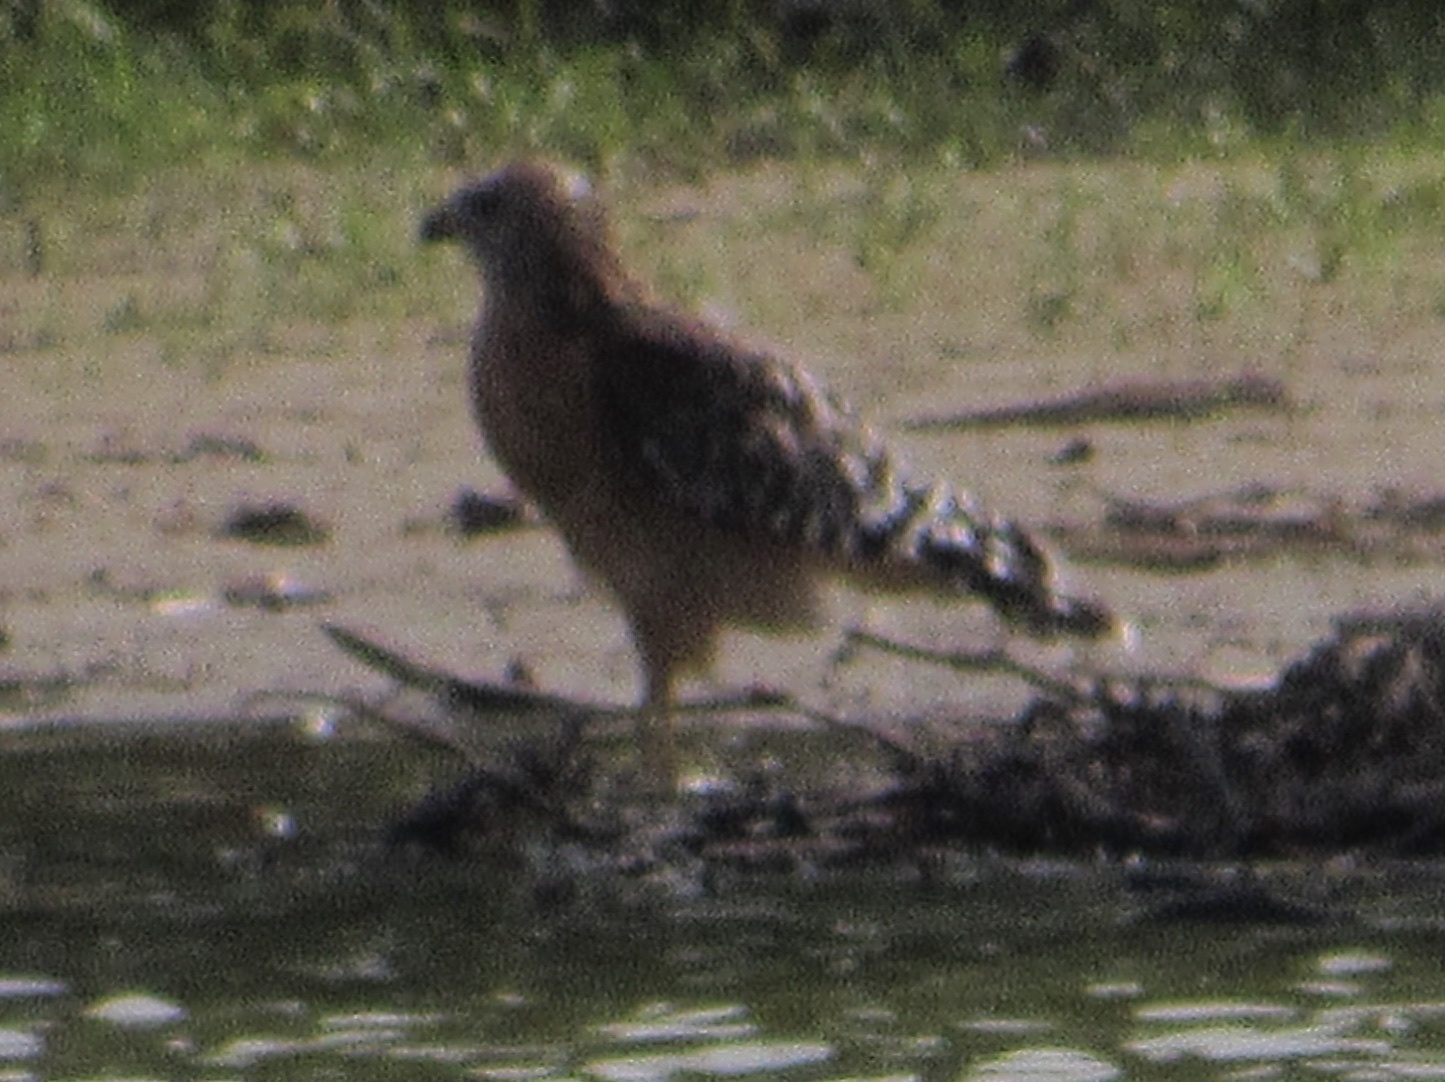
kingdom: Animalia
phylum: Chordata
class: Aves
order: Accipitriformes
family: Accipitridae
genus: Buteo
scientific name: Buteo lineatus
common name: Red-shouldered hawk
